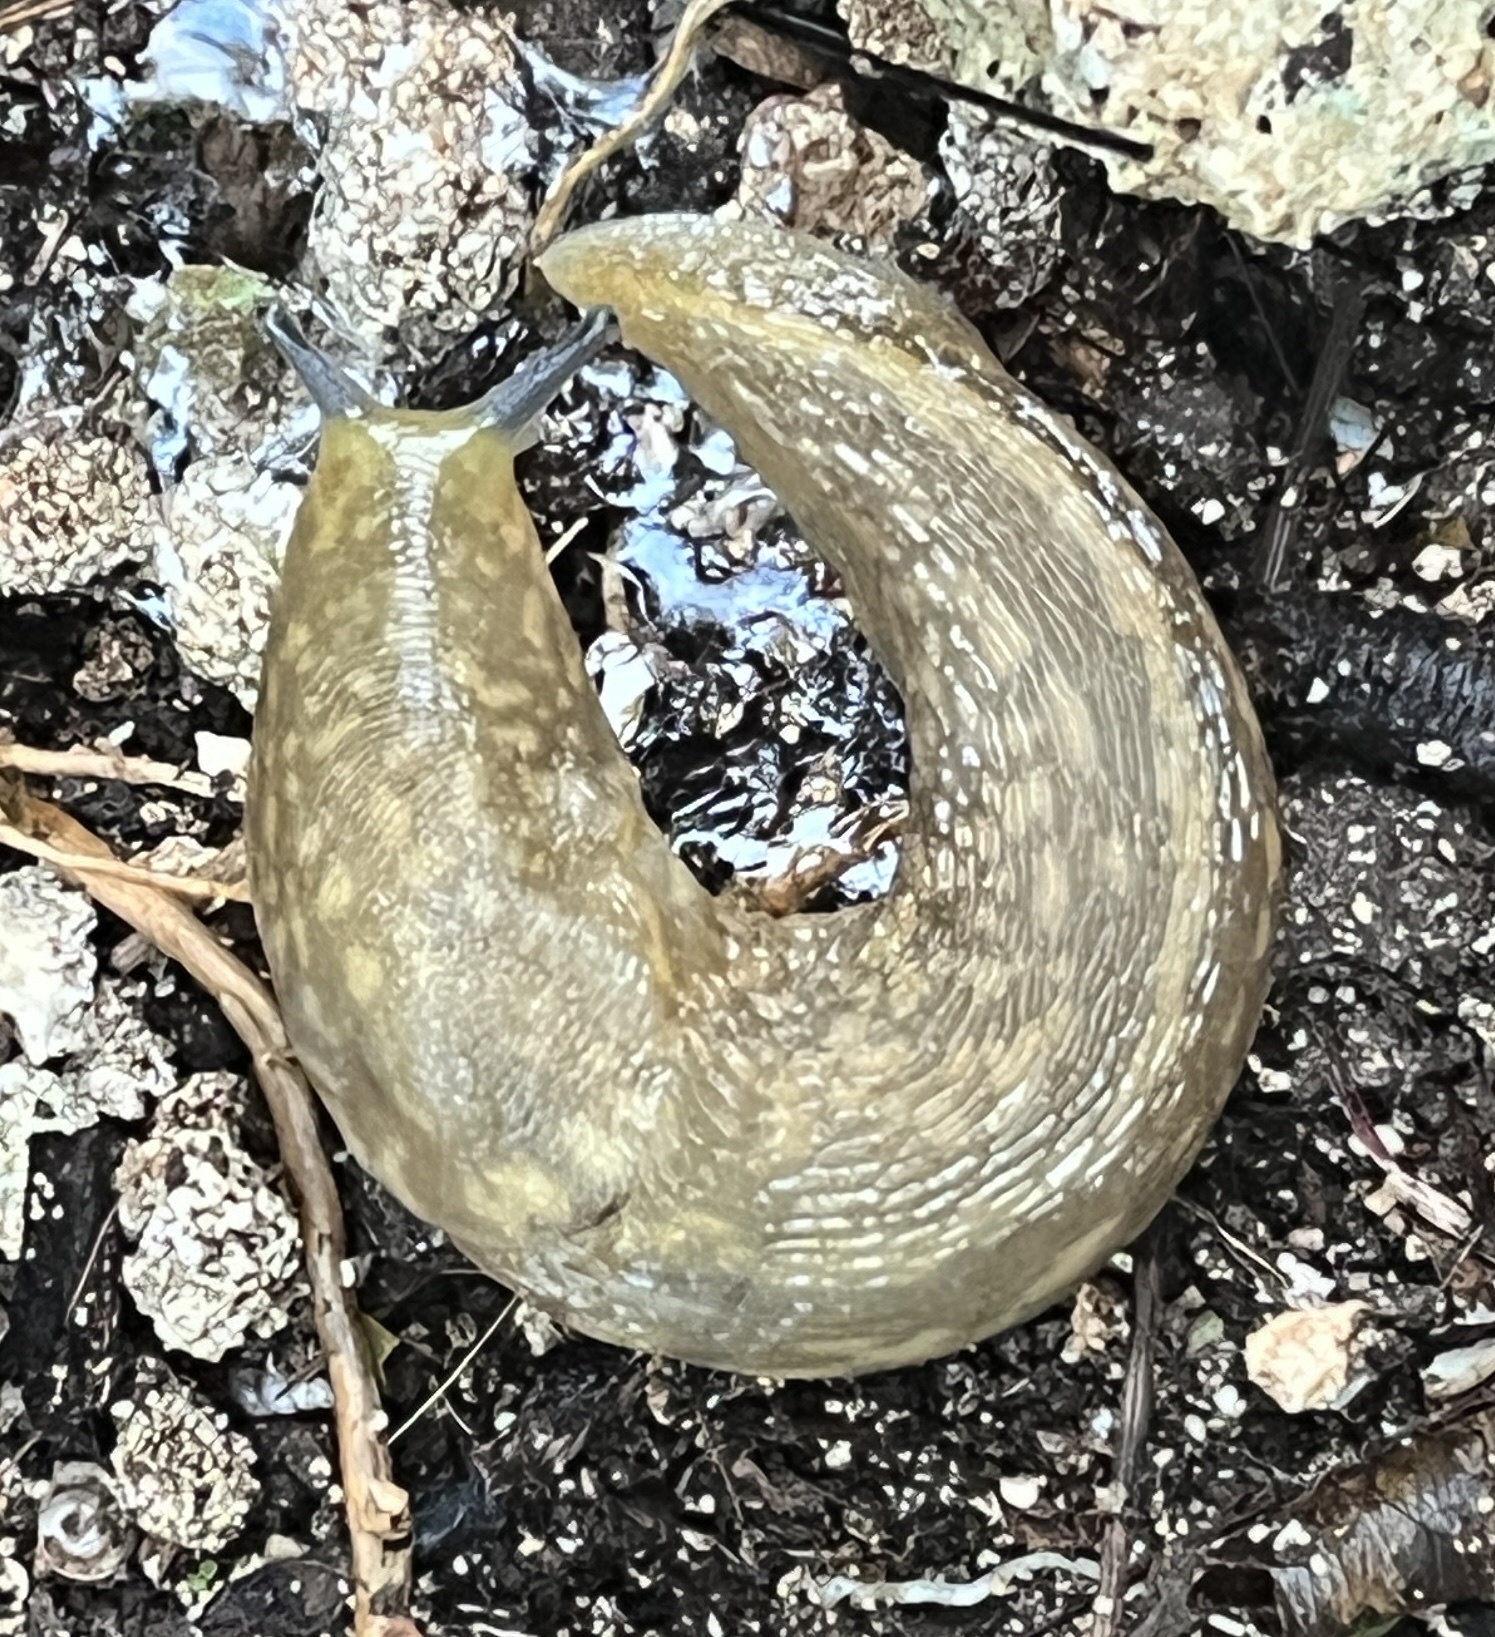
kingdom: Animalia
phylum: Mollusca
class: Gastropoda
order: Stylommatophora
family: Limacidae
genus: Limacus
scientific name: Limacus flavus
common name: Yellow gardenslug
